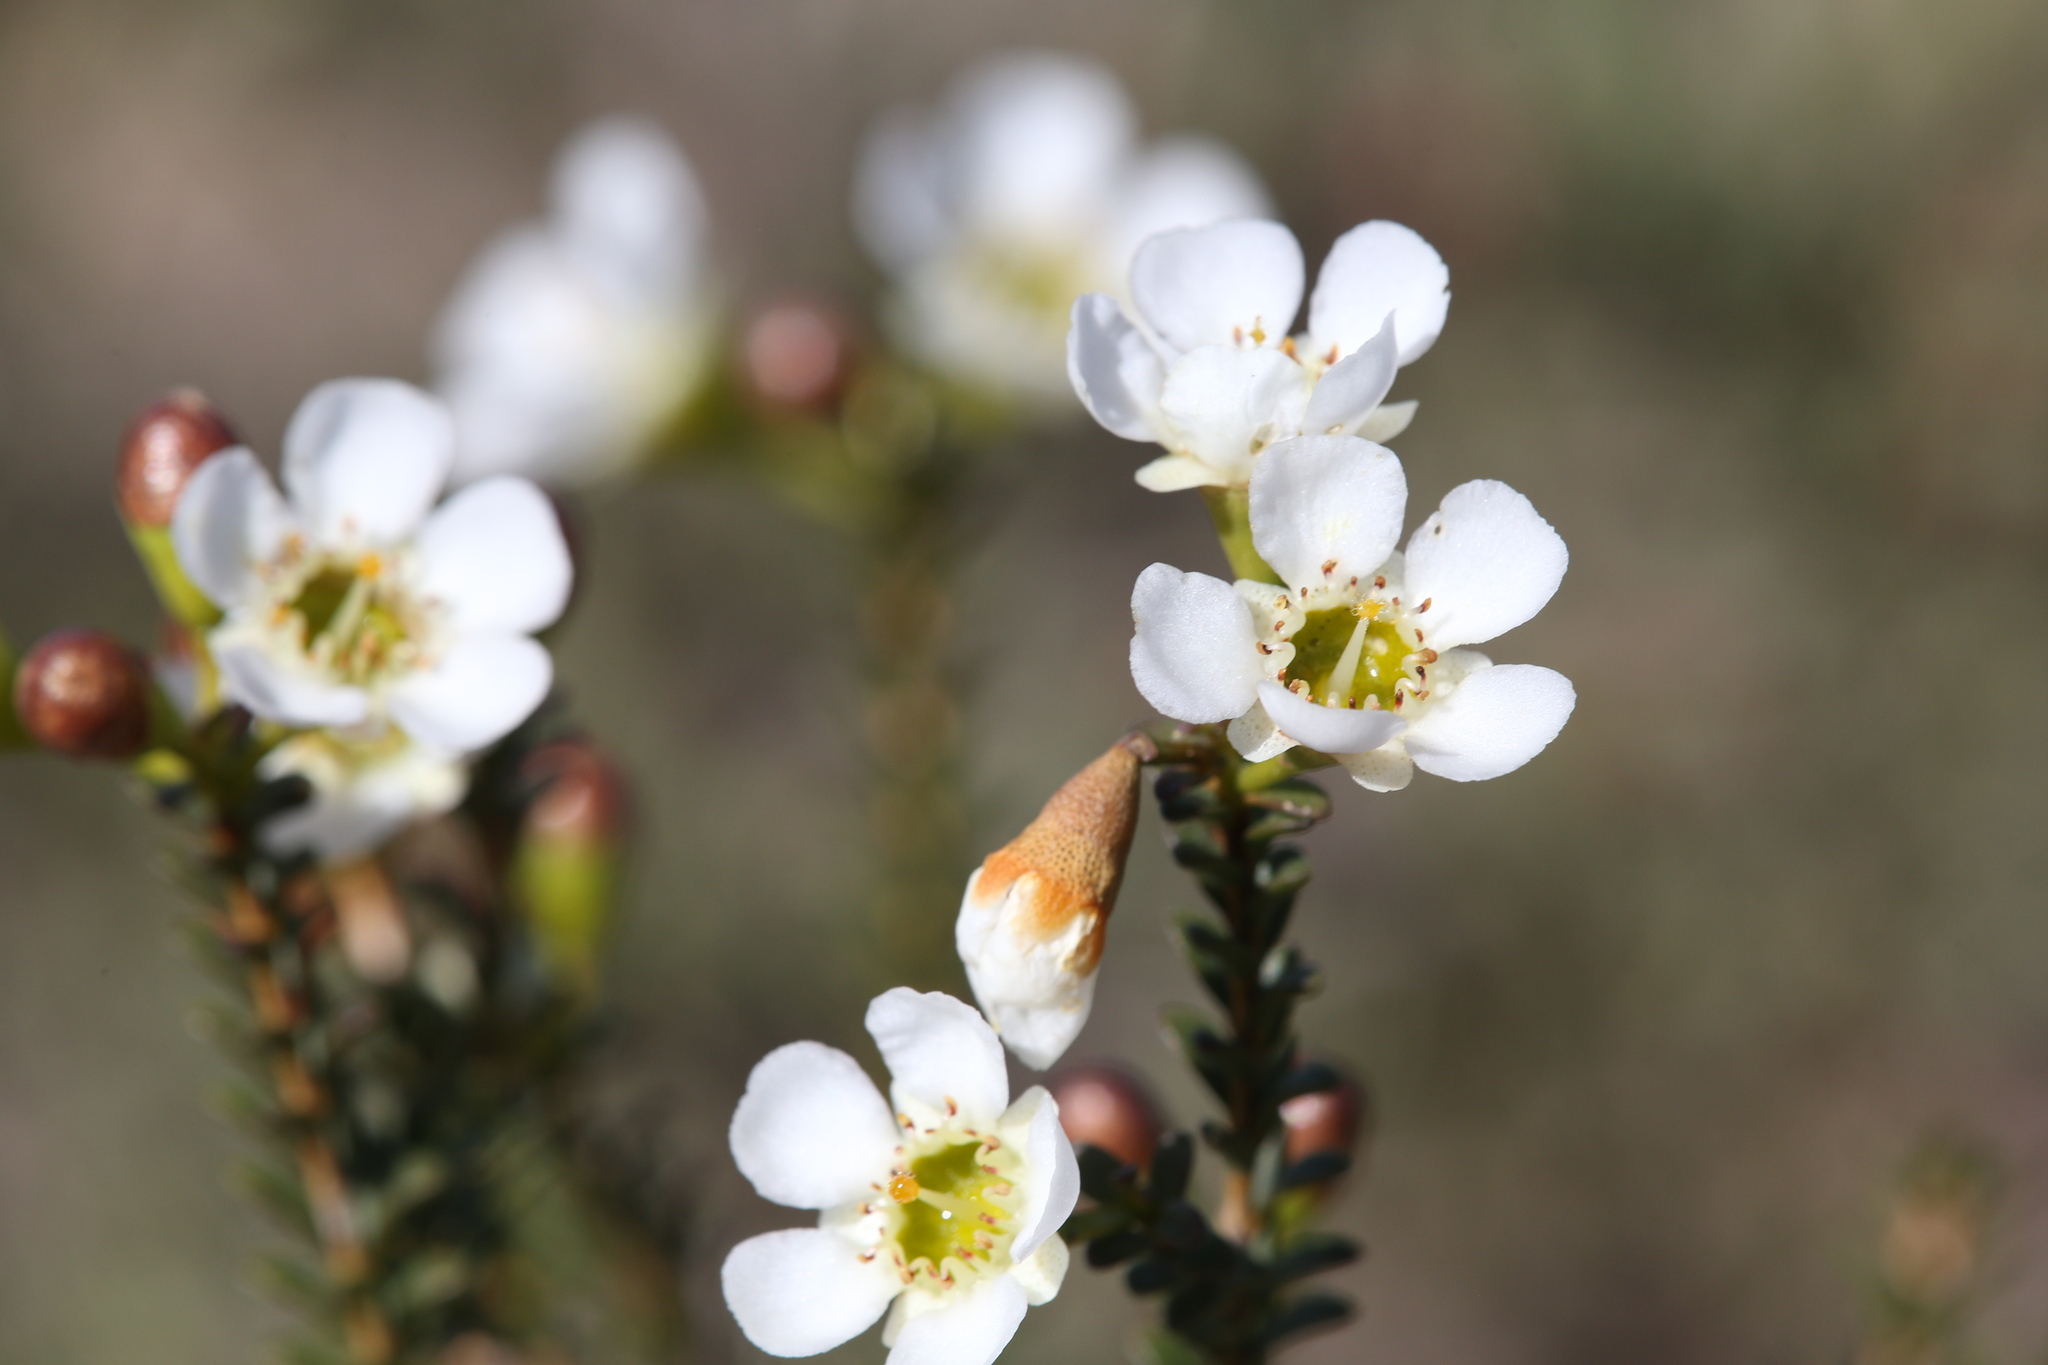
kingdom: Plantae
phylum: Tracheophyta
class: Magnoliopsida
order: Myrtales
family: Myrtaceae
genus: Chamelaucium
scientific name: Chamelaucium megalopetalum
